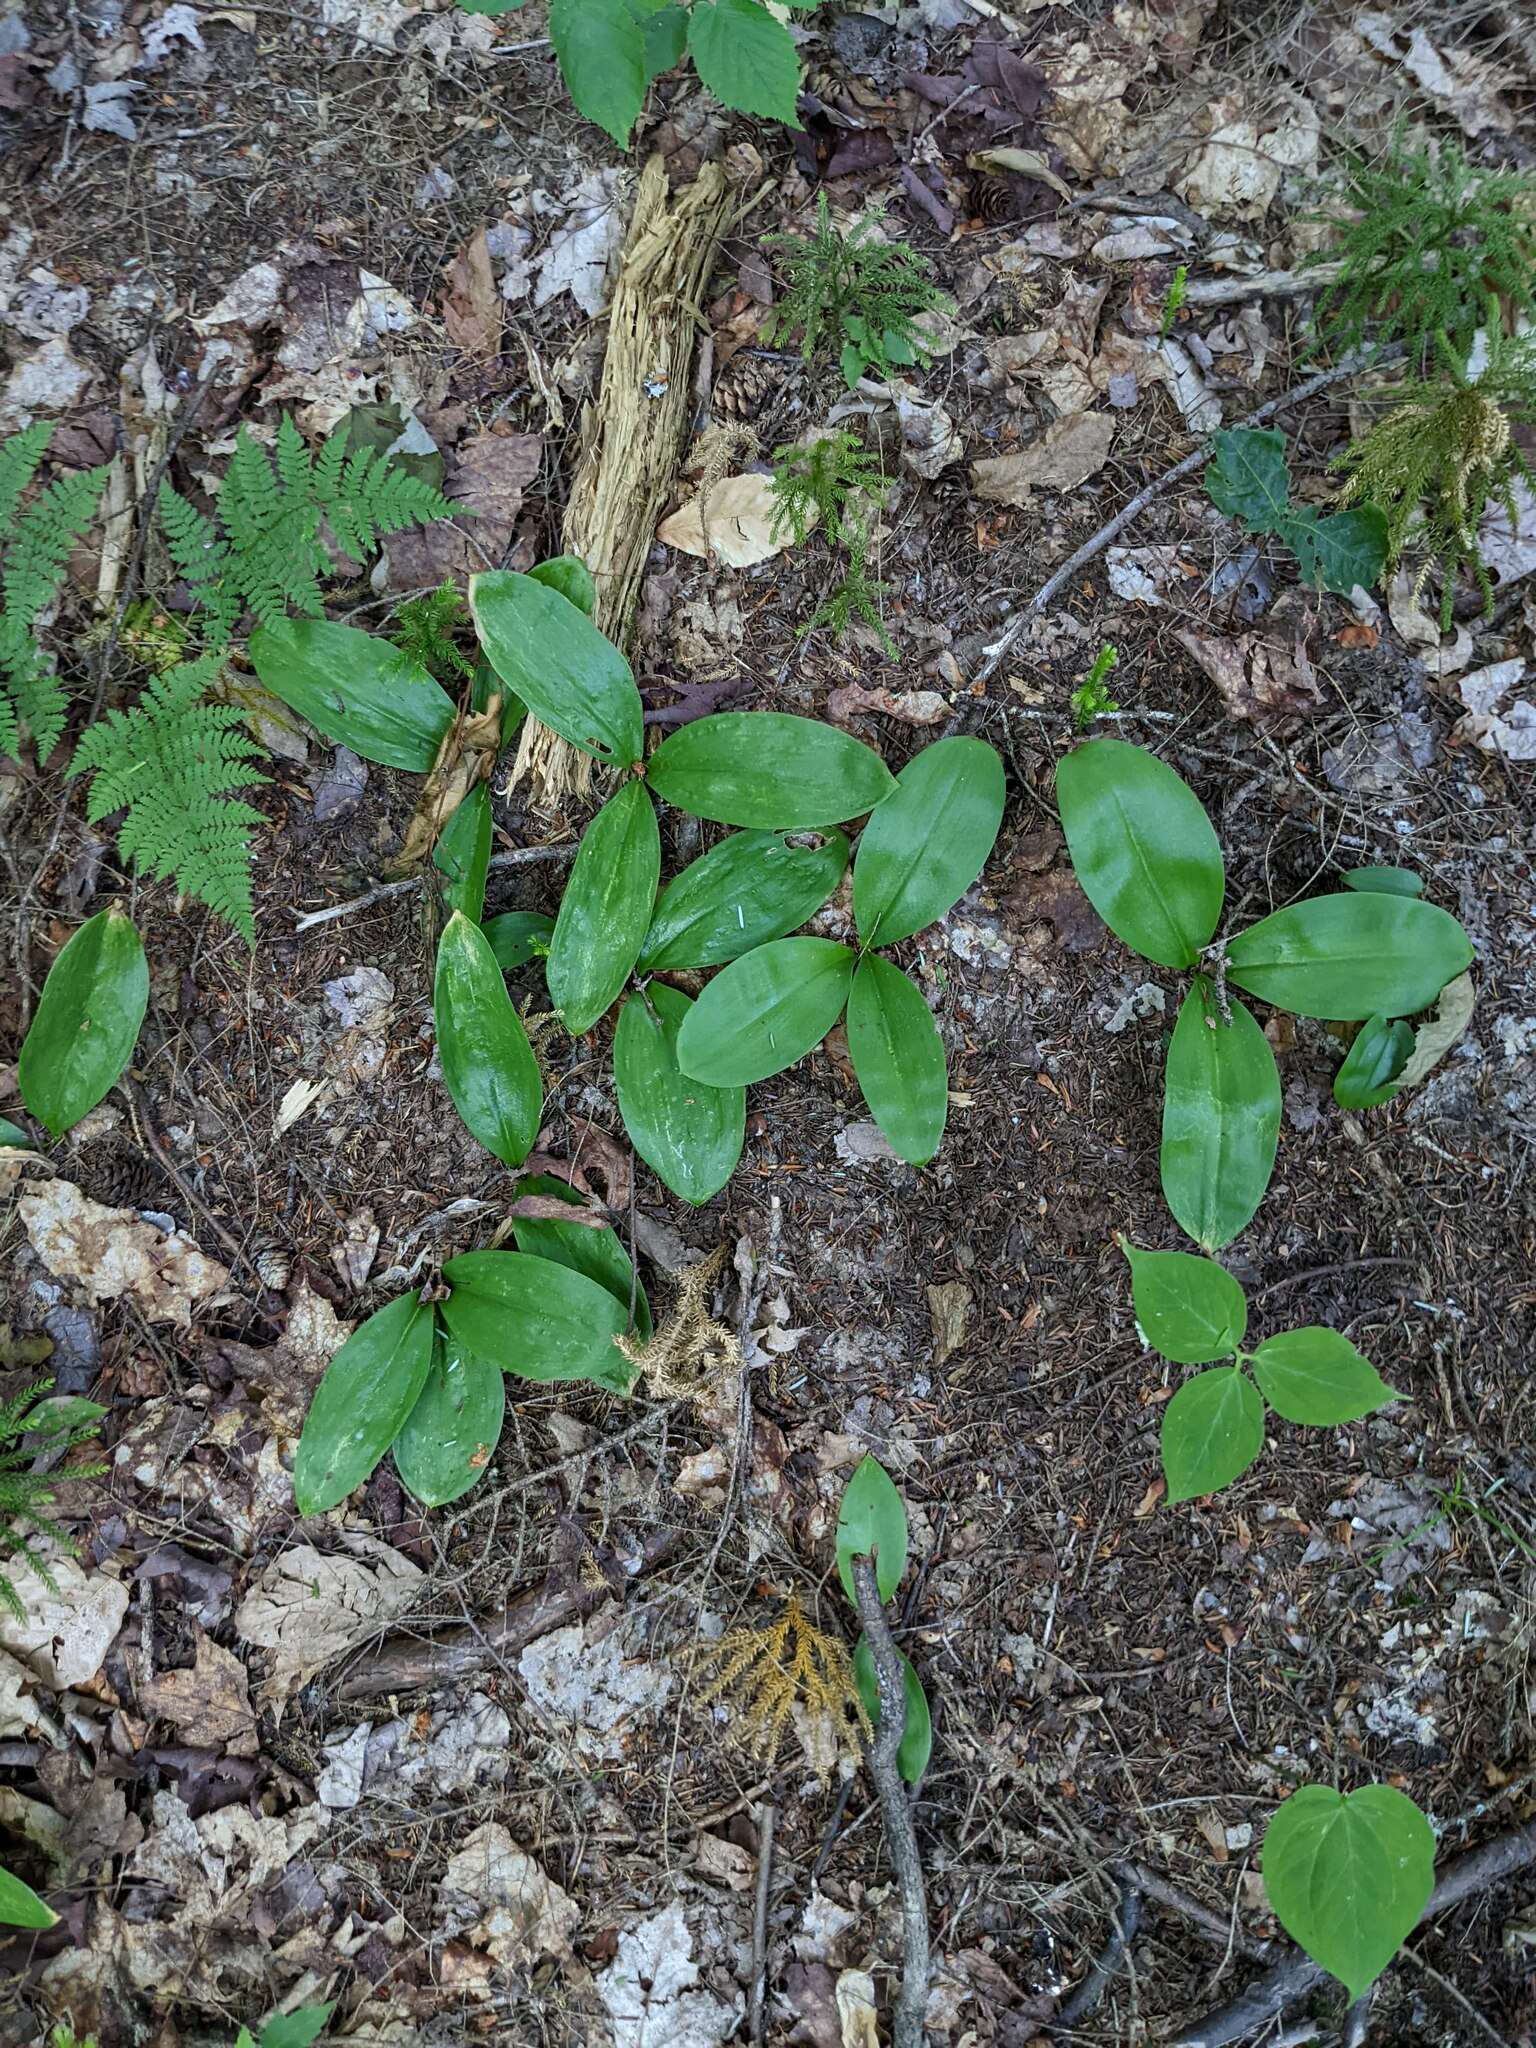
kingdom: Plantae
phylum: Tracheophyta
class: Liliopsida
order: Liliales
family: Liliaceae
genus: Clintonia
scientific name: Clintonia borealis
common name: Yellow clintonia
